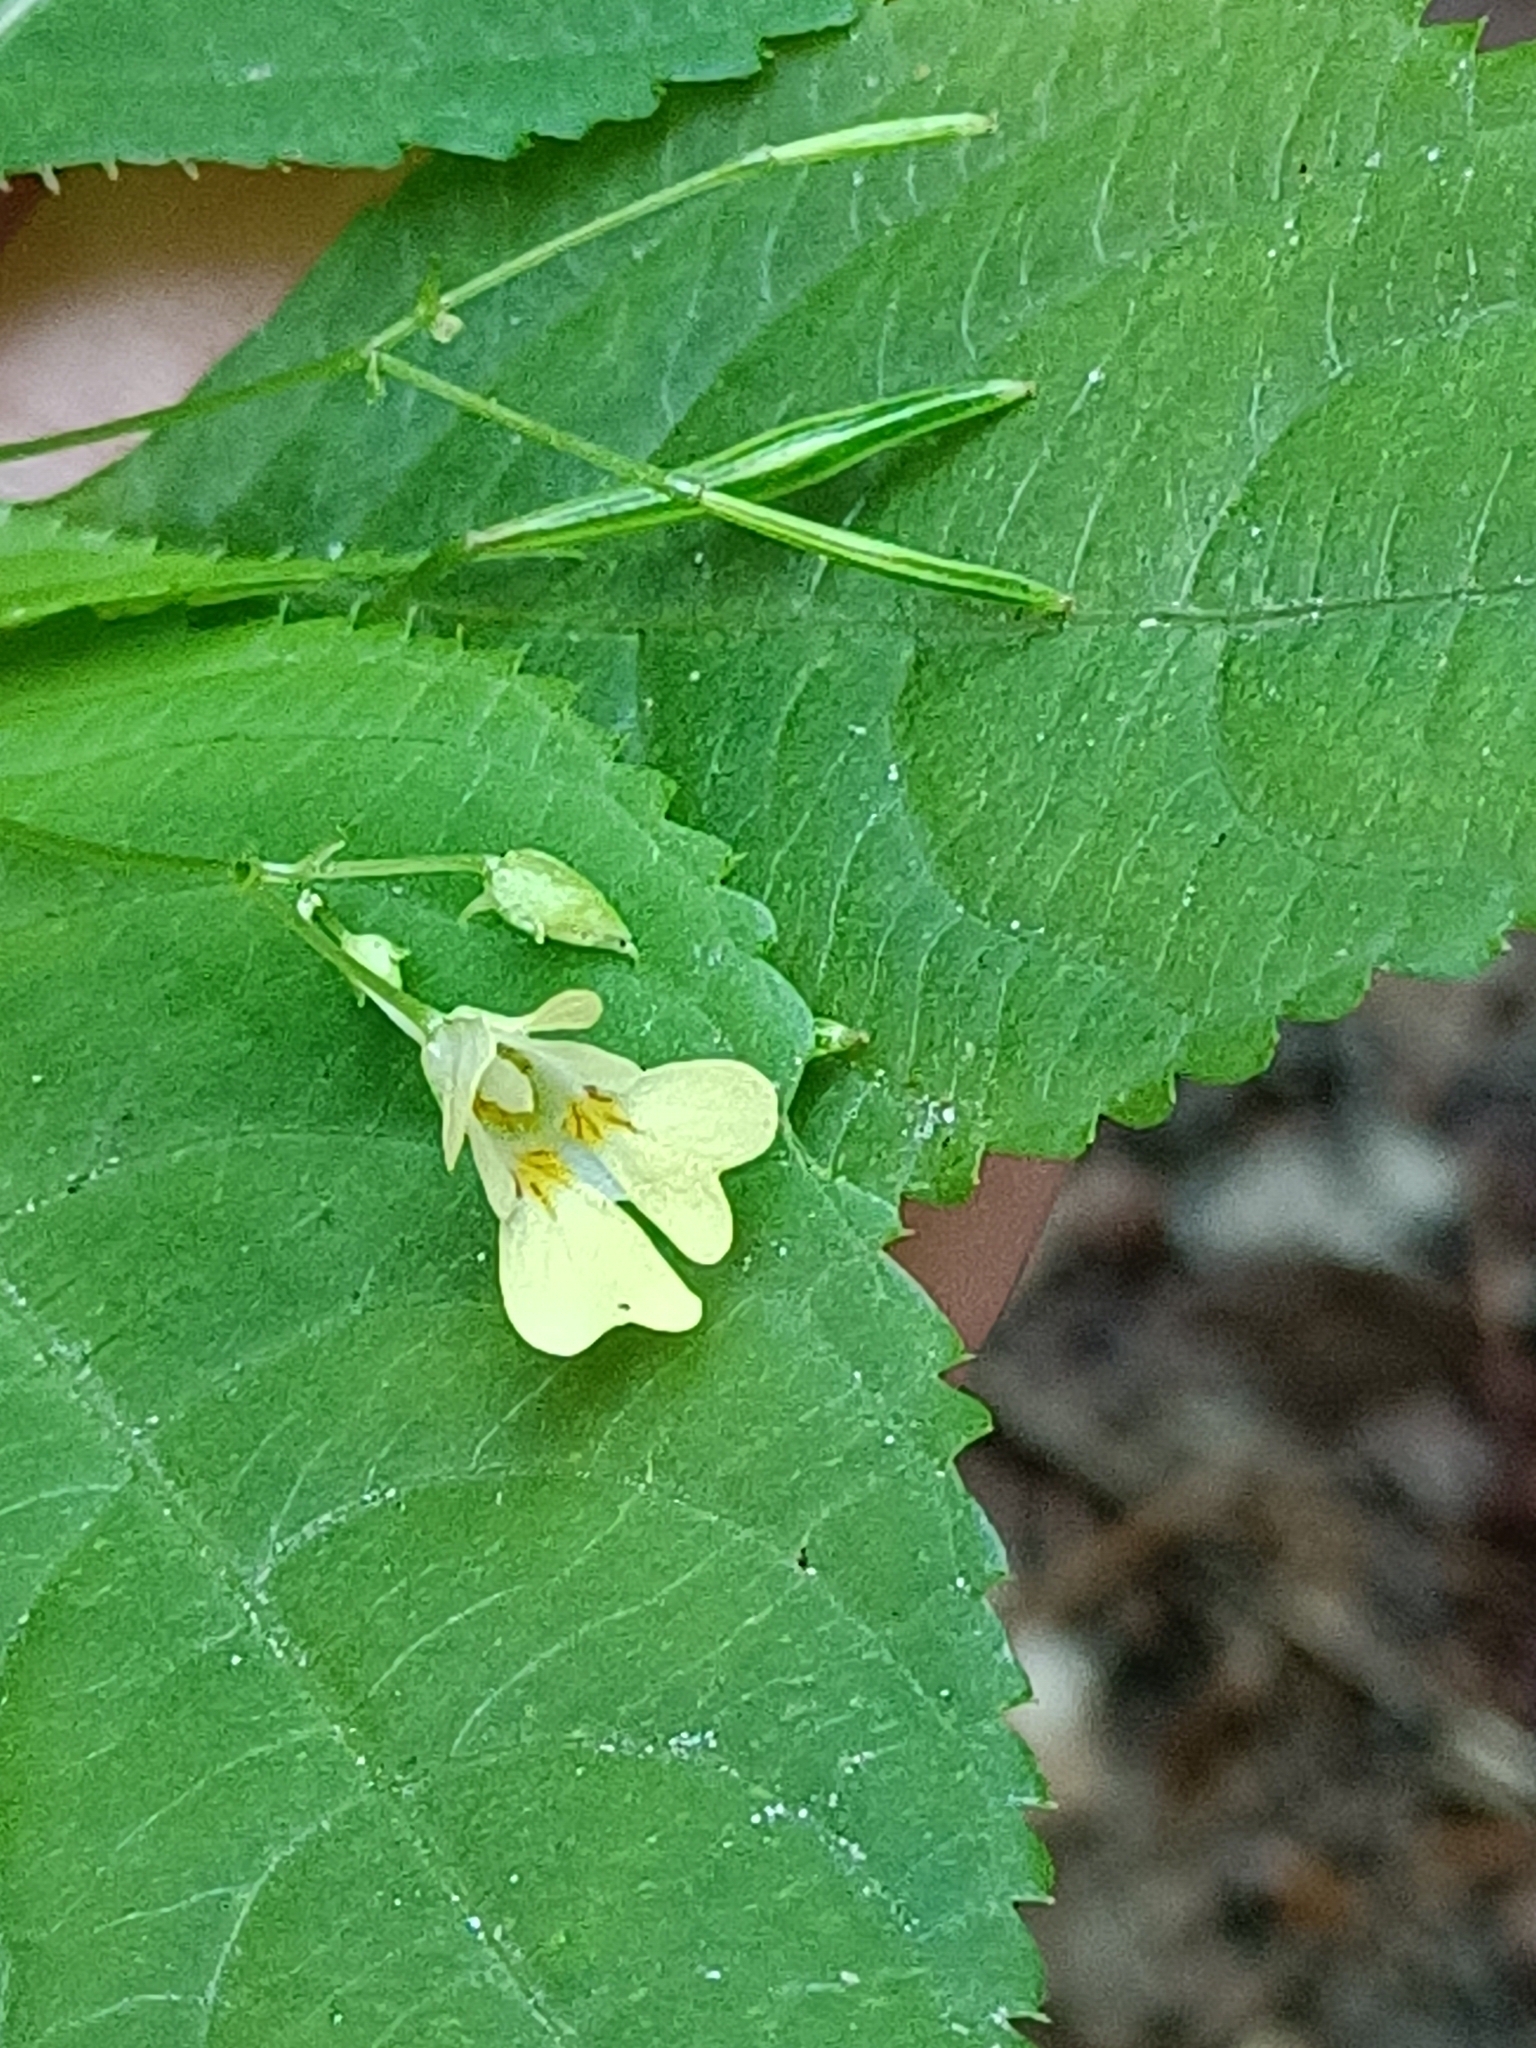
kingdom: Plantae
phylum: Tracheophyta
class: Magnoliopsida
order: Ericales
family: Balsaminaceae
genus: Impatiens
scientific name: Impatiens parviflora
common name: Small balsam
